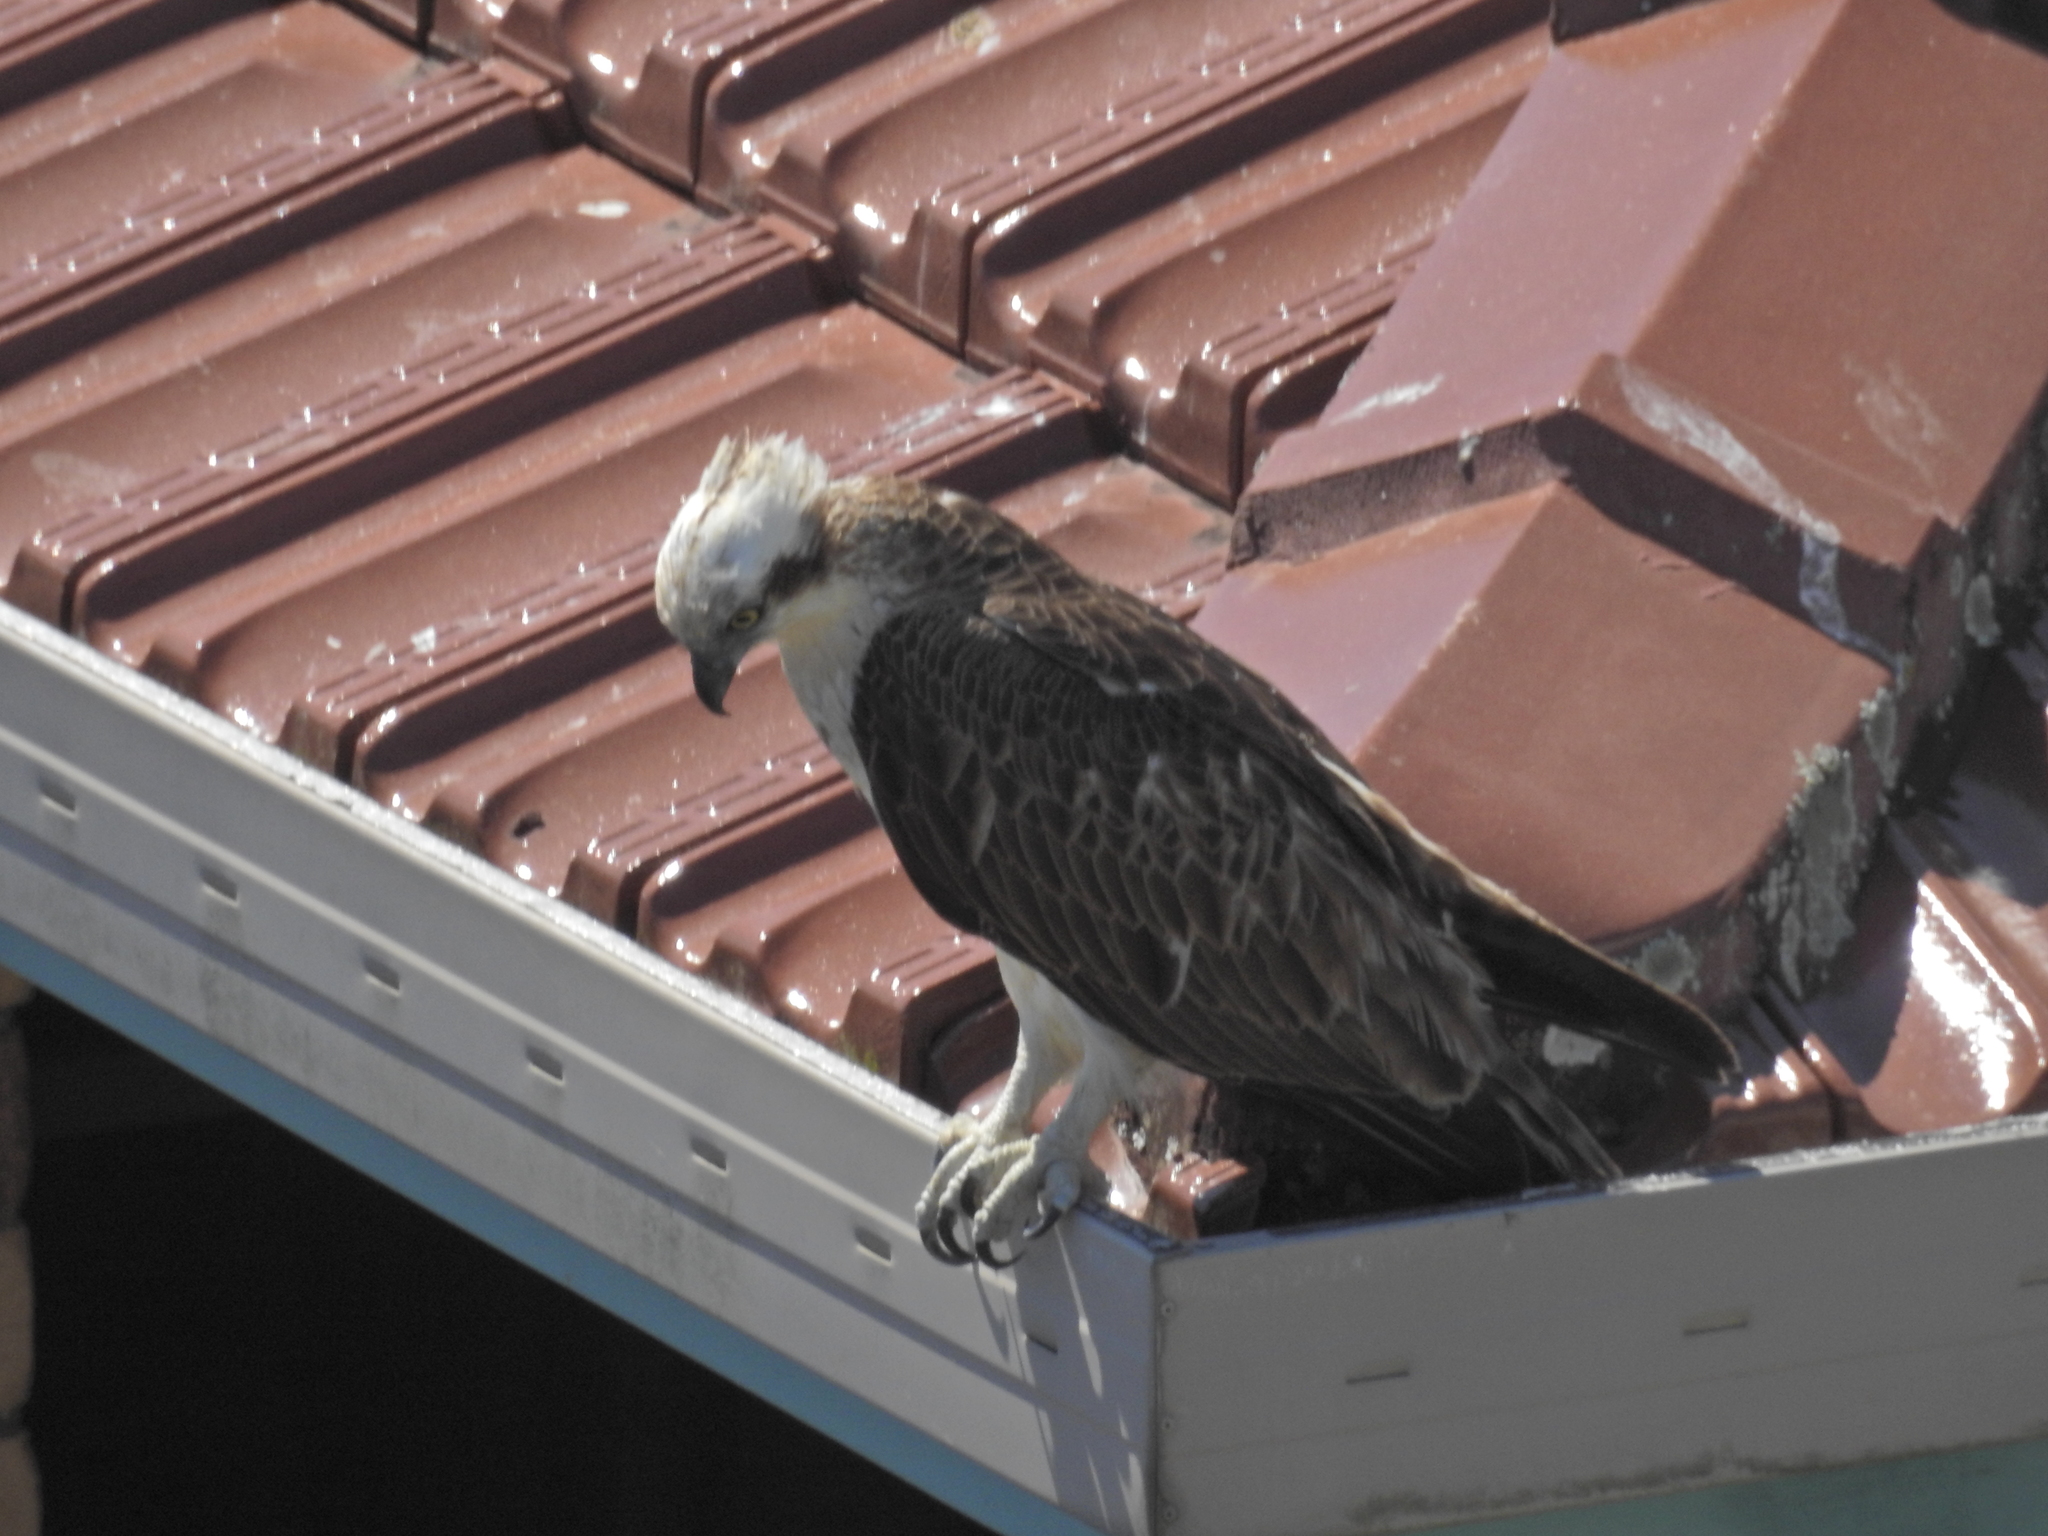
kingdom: Animalia
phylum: Chordata
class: Aves
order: Accipitriformes
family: Pandionidae
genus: Pandion
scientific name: Pandion haliaetus
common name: Osprey
